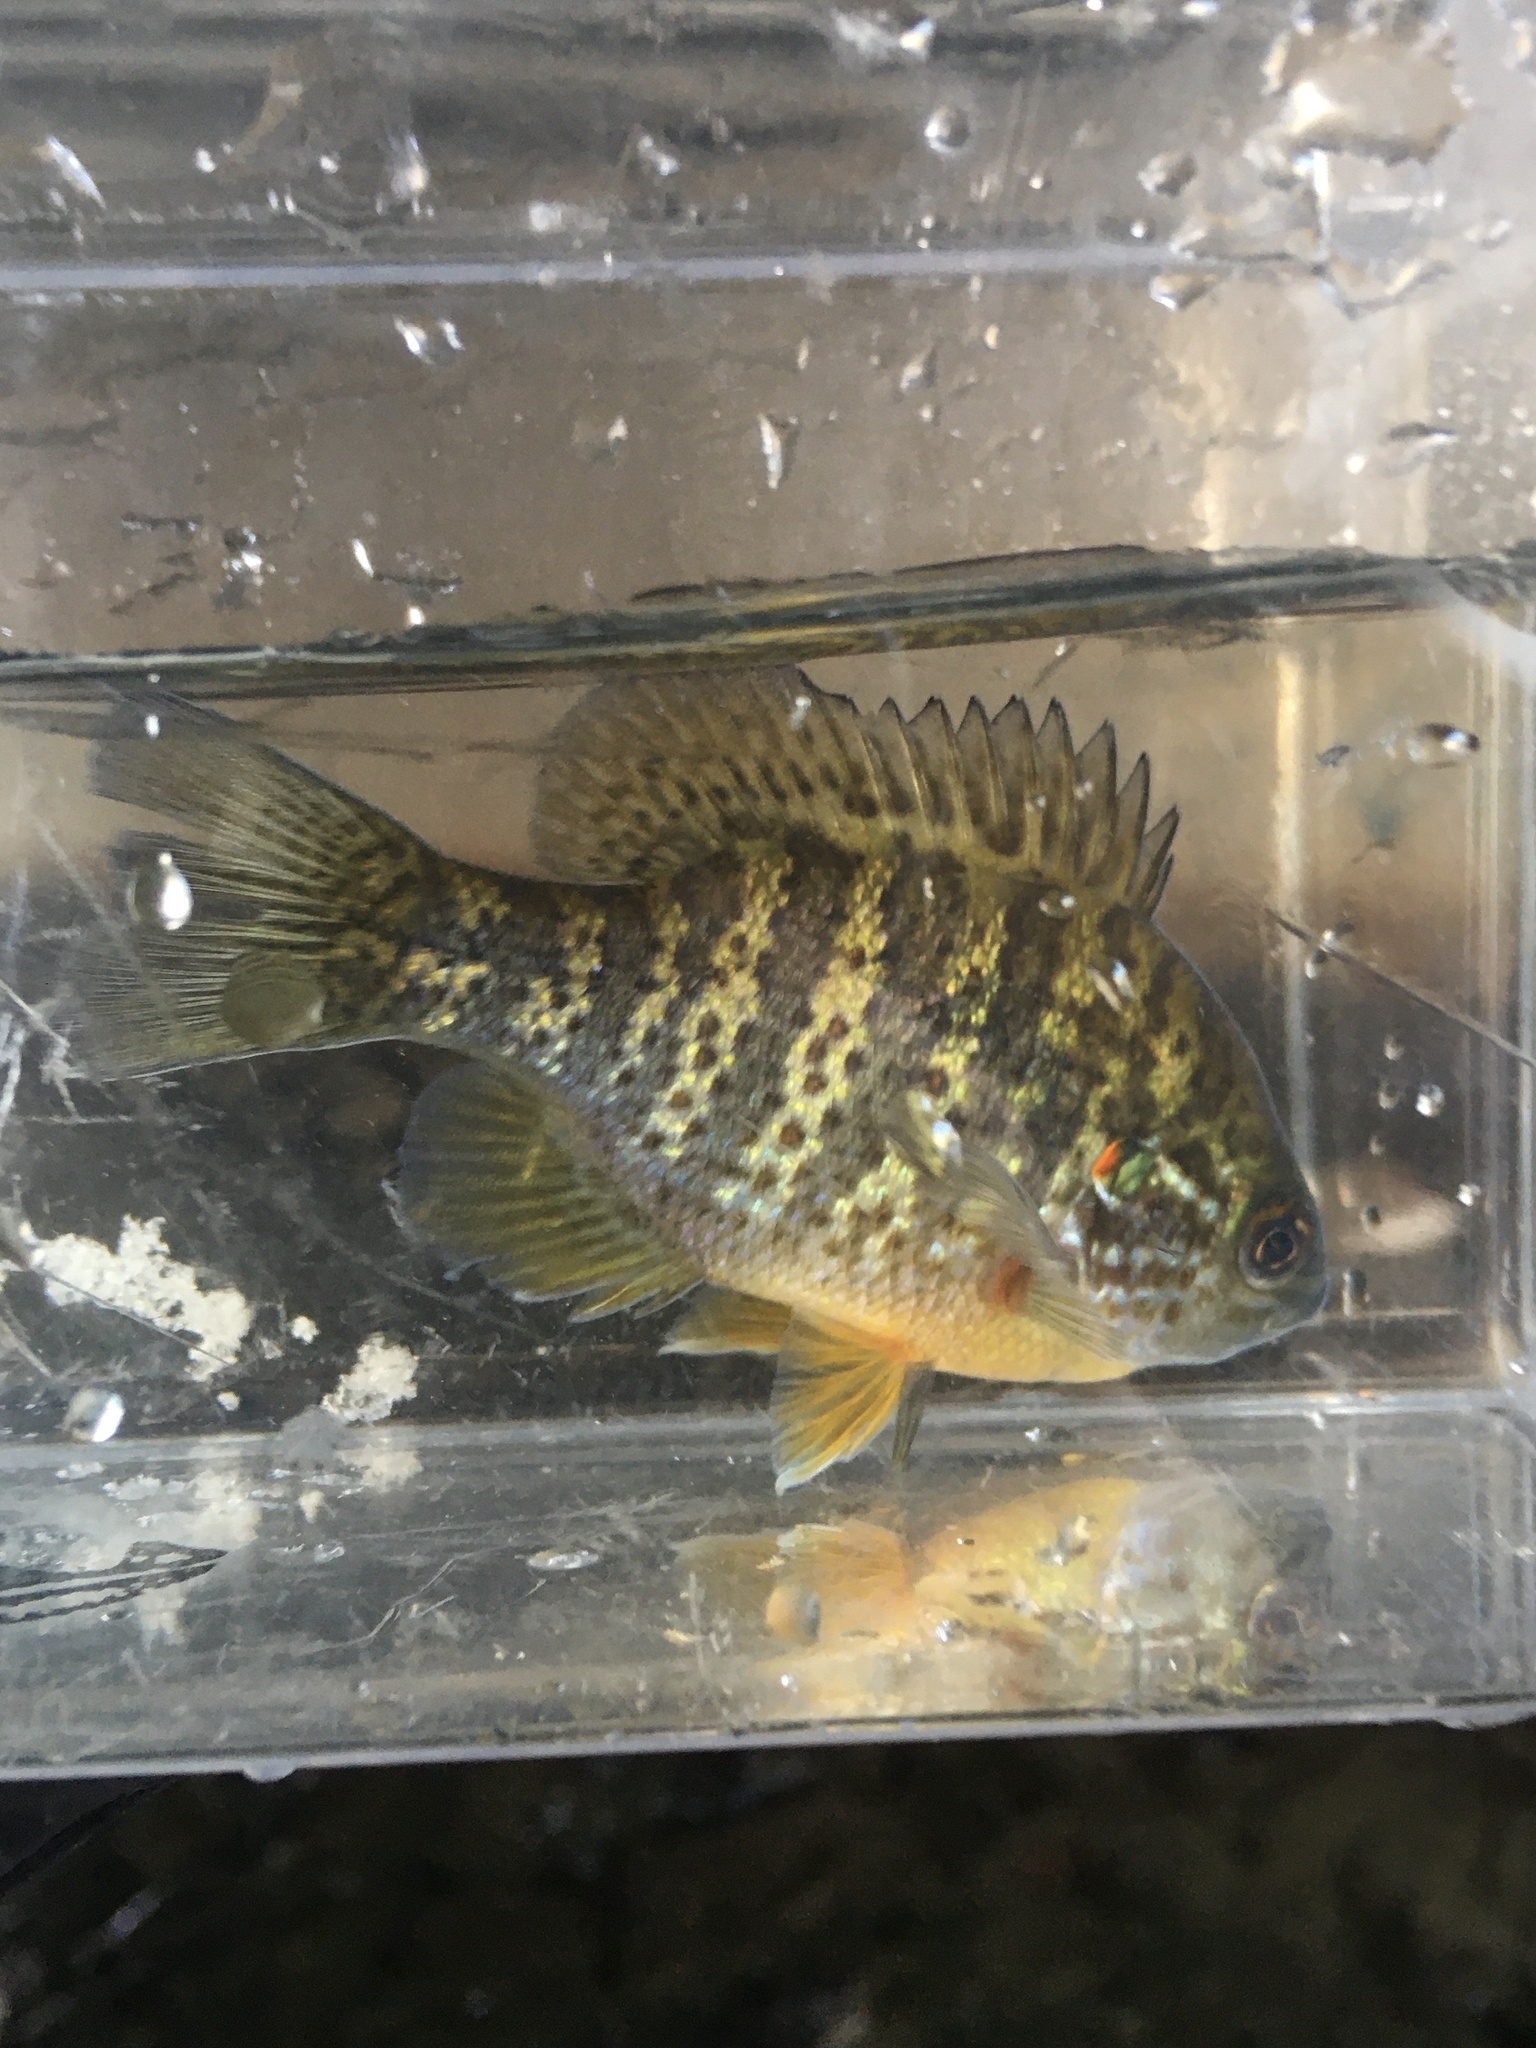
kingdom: Animalia
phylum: Chordata
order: Perciformes
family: Centrarchidae
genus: Lepomis
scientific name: Lepomis gibbosus
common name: Pumpkinseed
